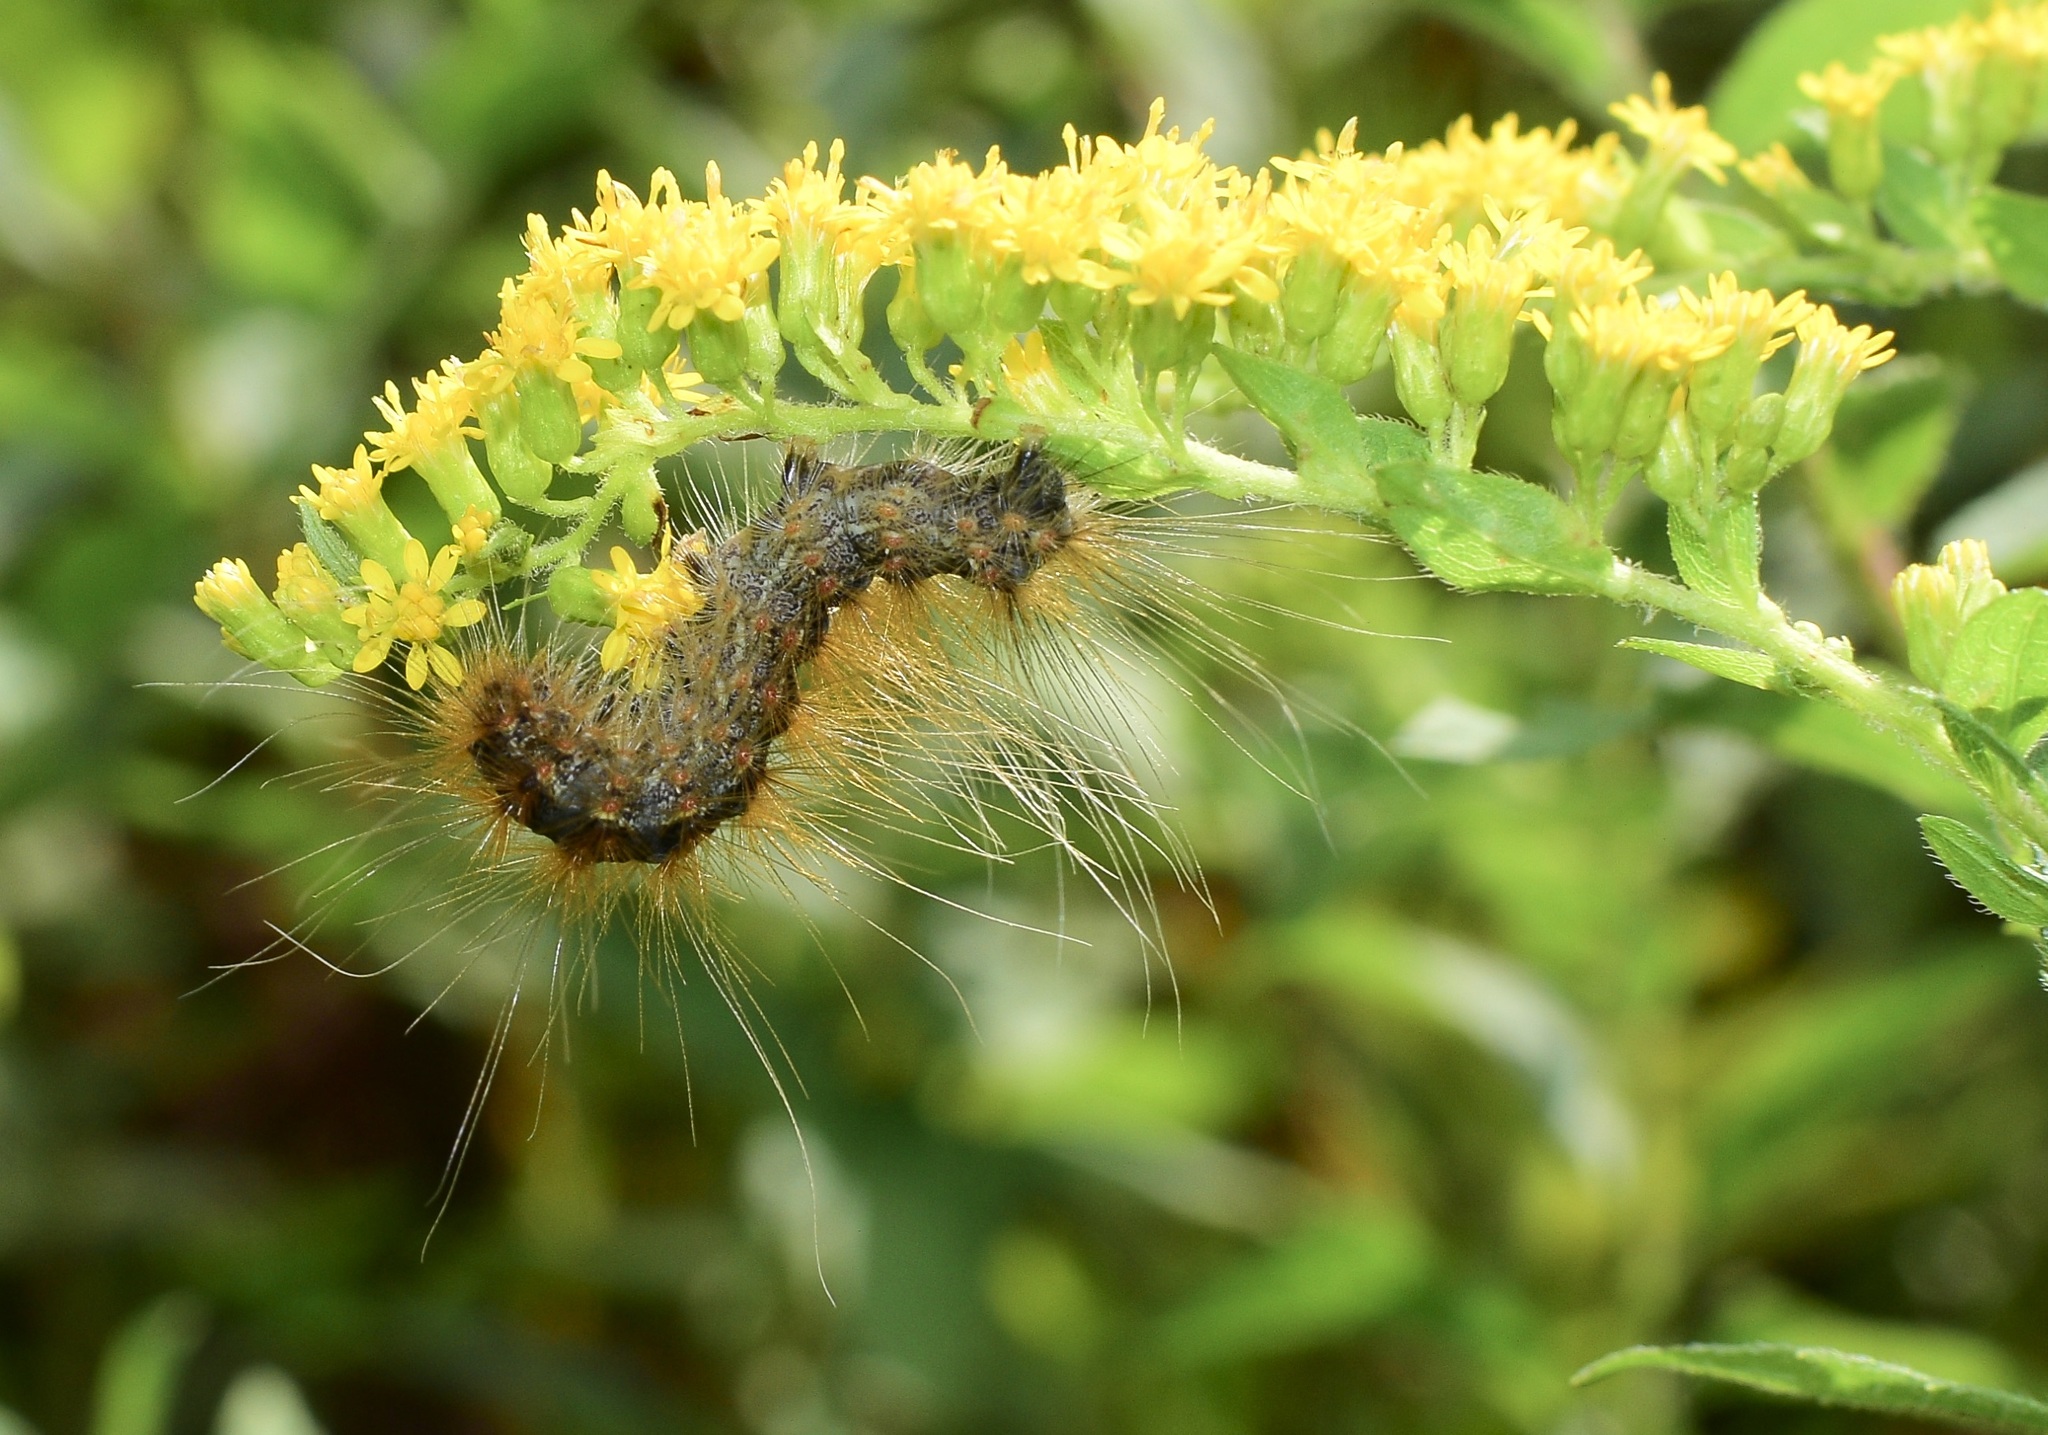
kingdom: Animalia
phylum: Arthropoda
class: Insecta
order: Lepidoptera
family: Erebidae
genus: Hyphantria
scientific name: Hyphantria cunea
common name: American white moth
